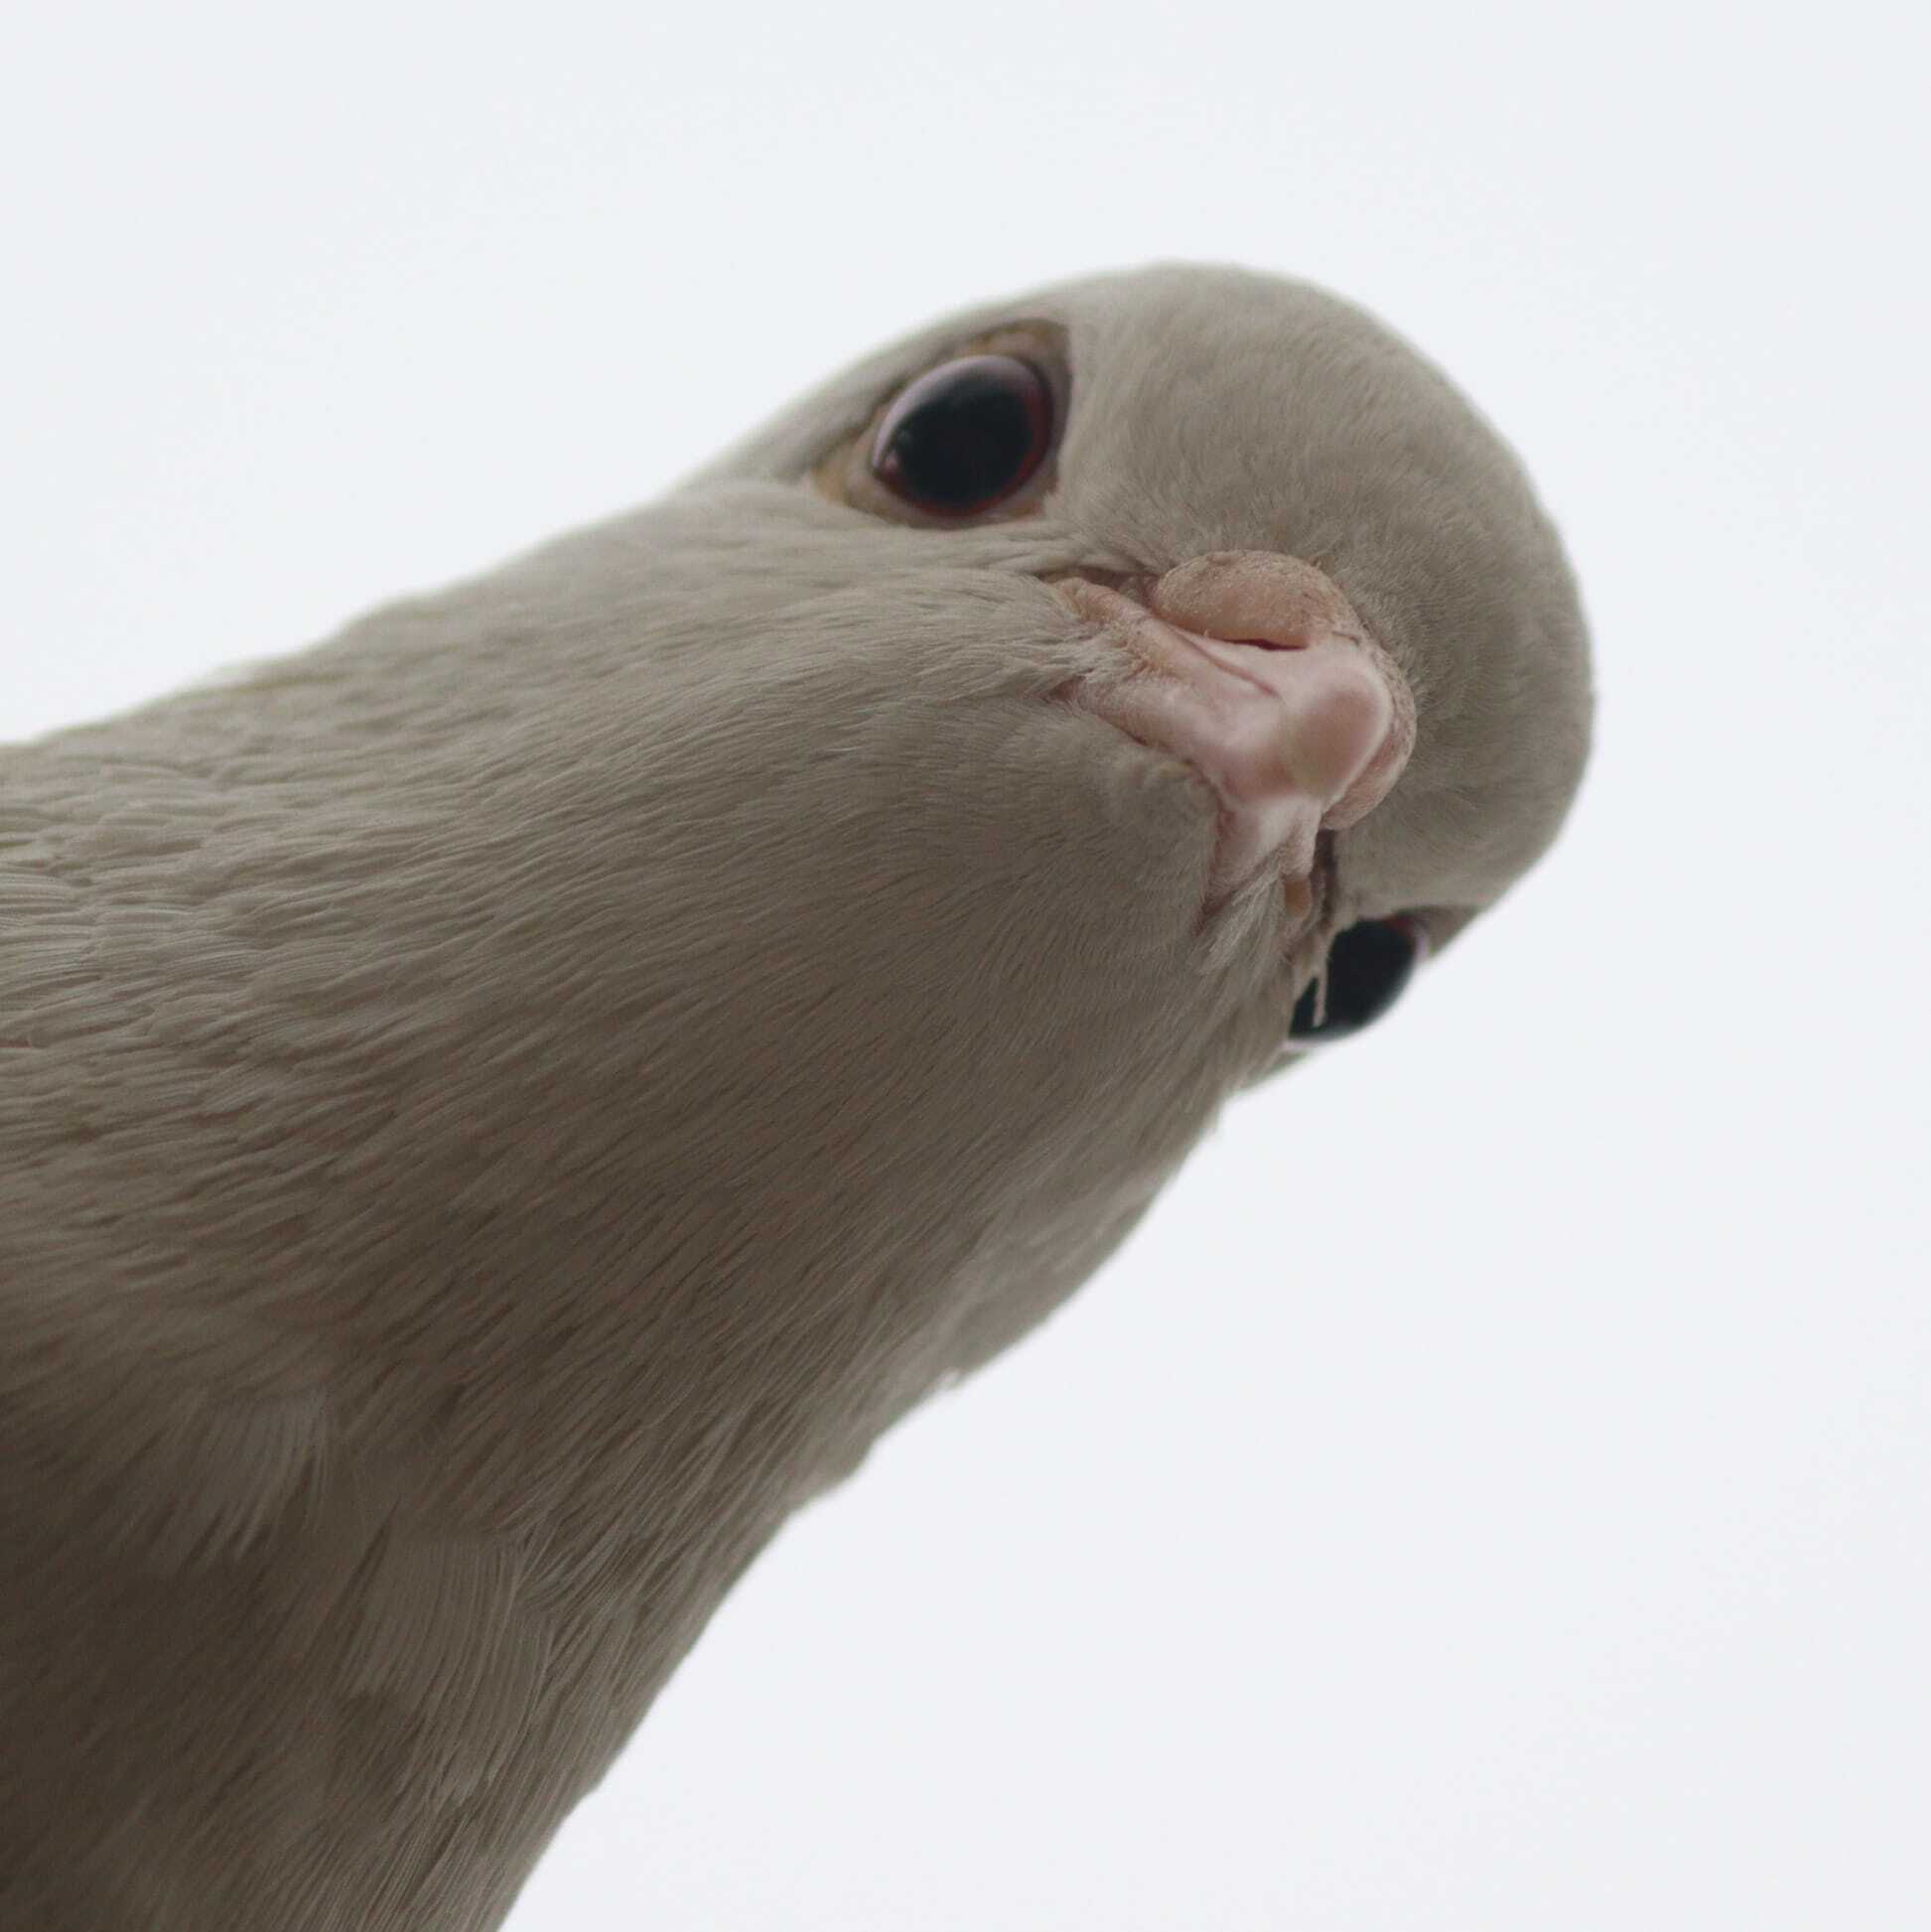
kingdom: Animalia
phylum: Chordata
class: Aves
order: Columbiformes
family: Columbidae
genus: Columba
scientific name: Columba livia
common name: Rock pigeon
